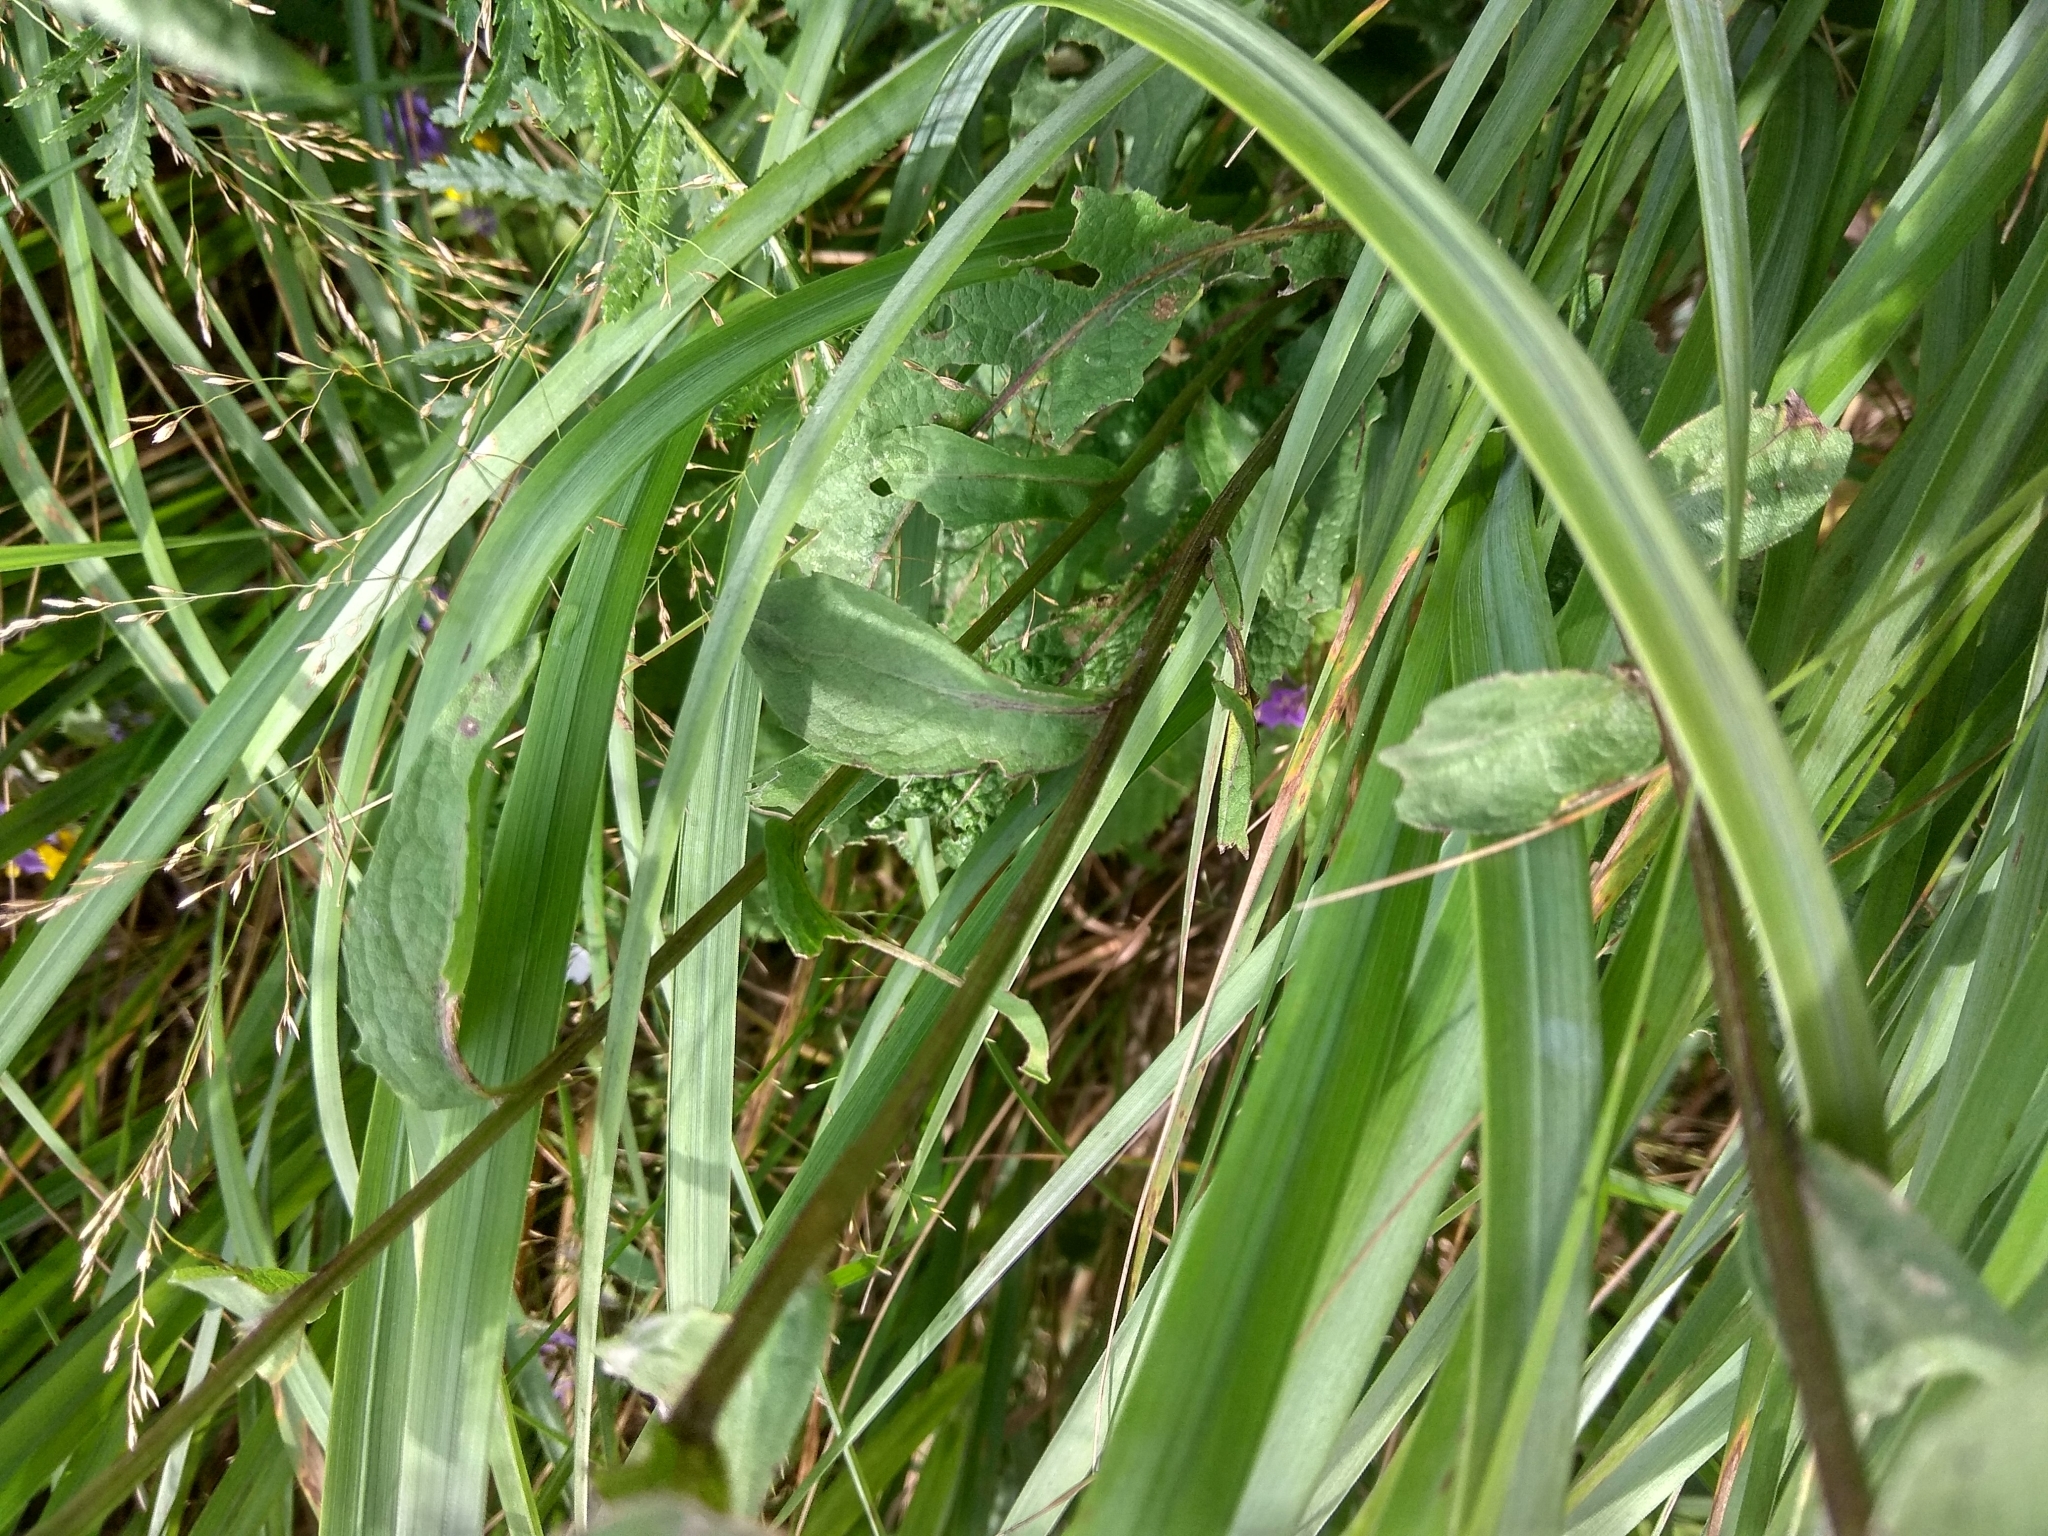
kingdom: Plantae
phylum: Tracheophyta
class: Magnoliopsida
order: Asterales
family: Asteraceae
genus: Centaurea
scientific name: Centaurea pseudophrygia
